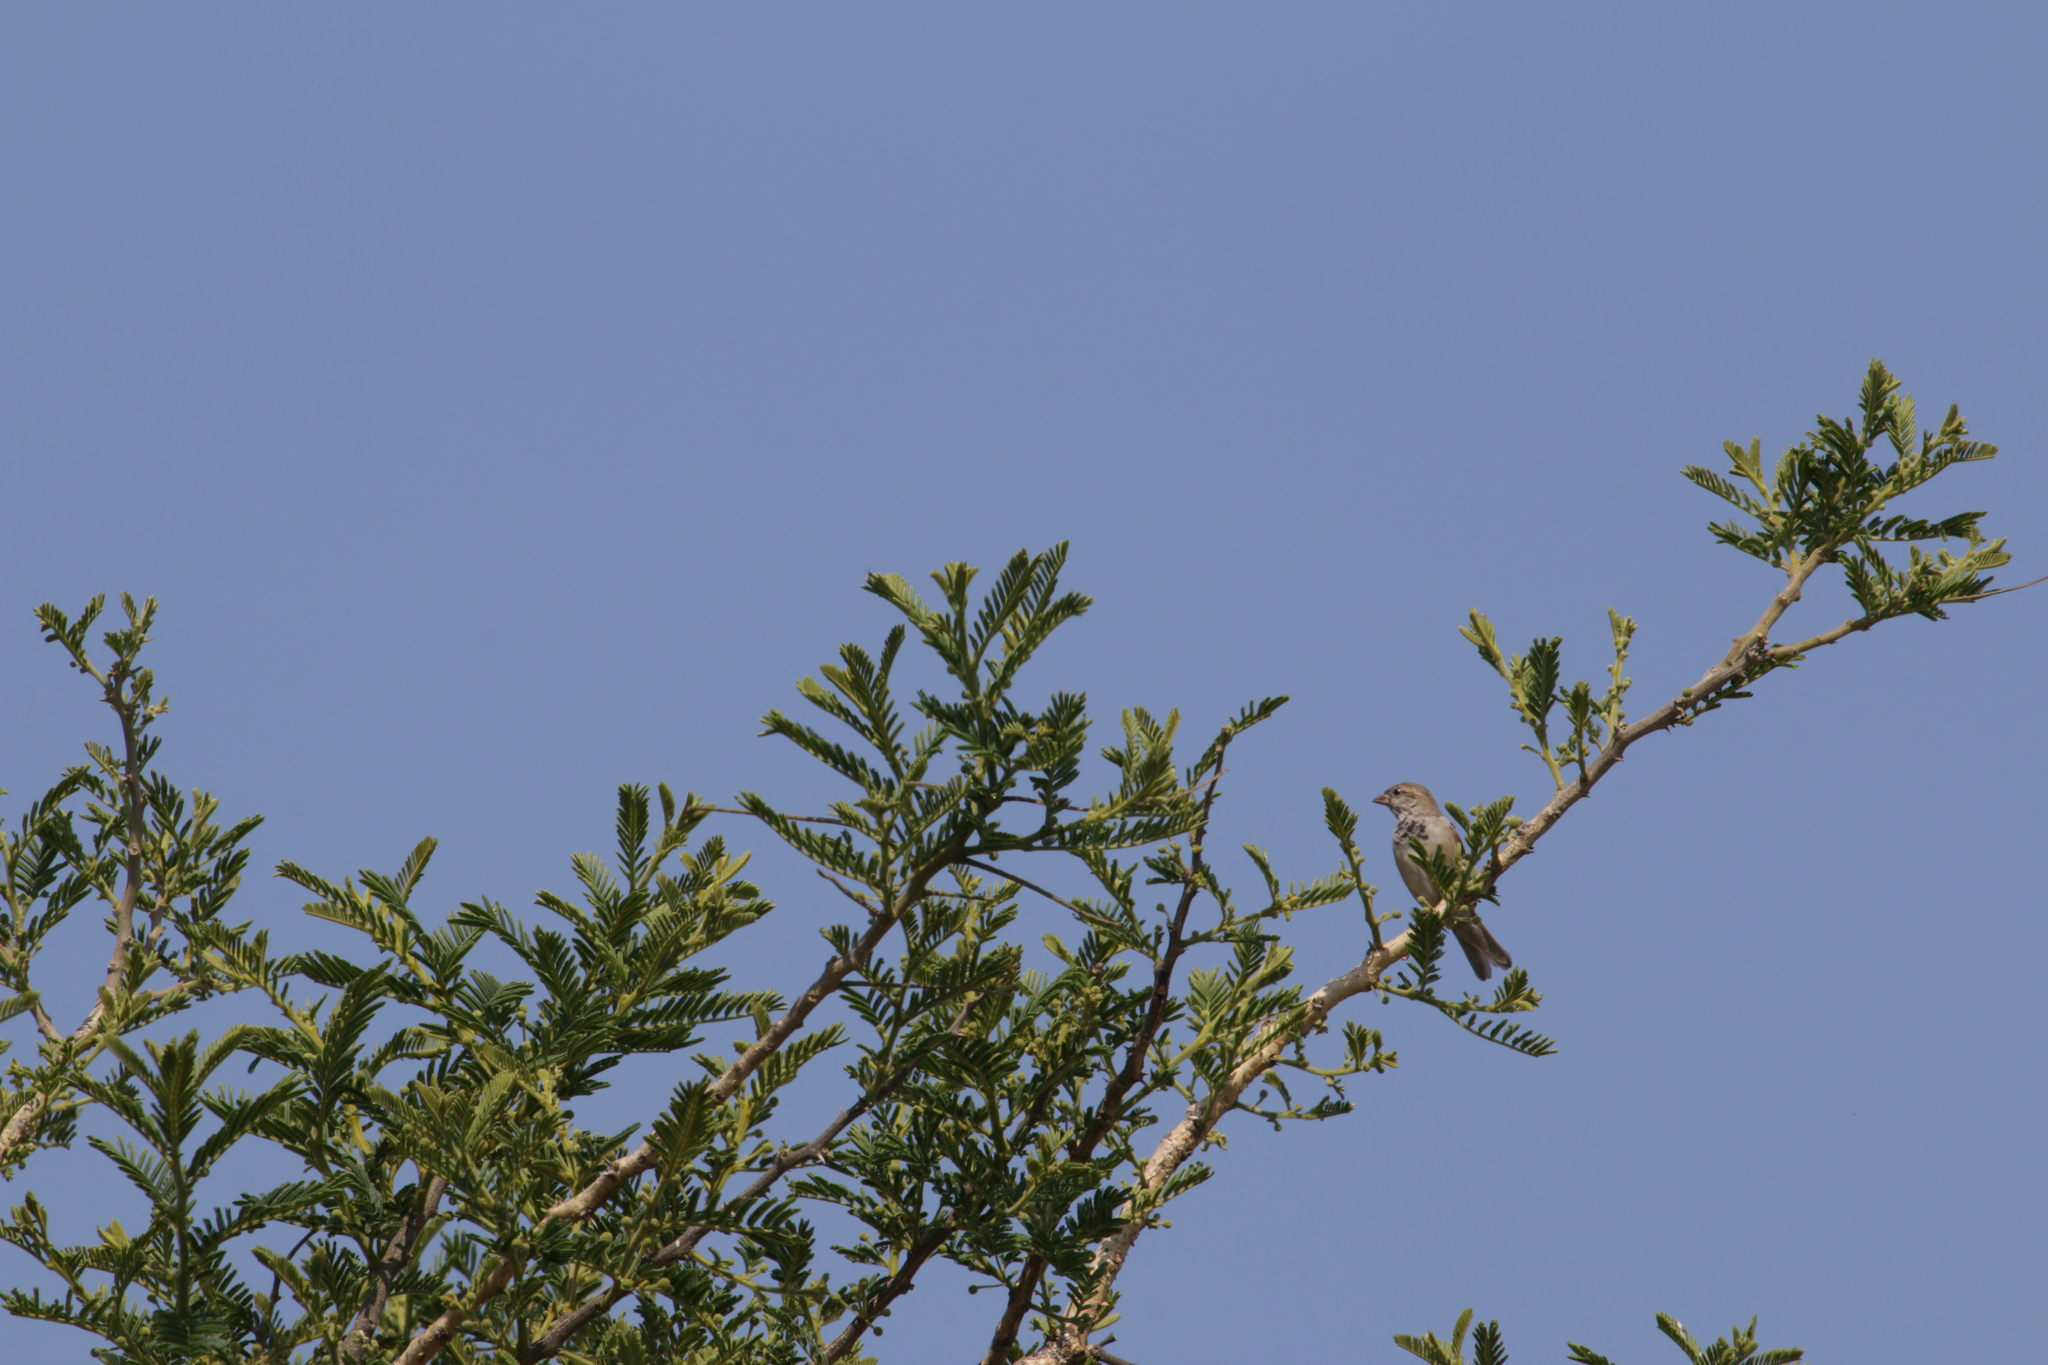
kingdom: Animalia
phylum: Chordata
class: Aves
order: Passeriformes
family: Passeridae
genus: Passer
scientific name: Passer domesticus
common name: House sparrow
